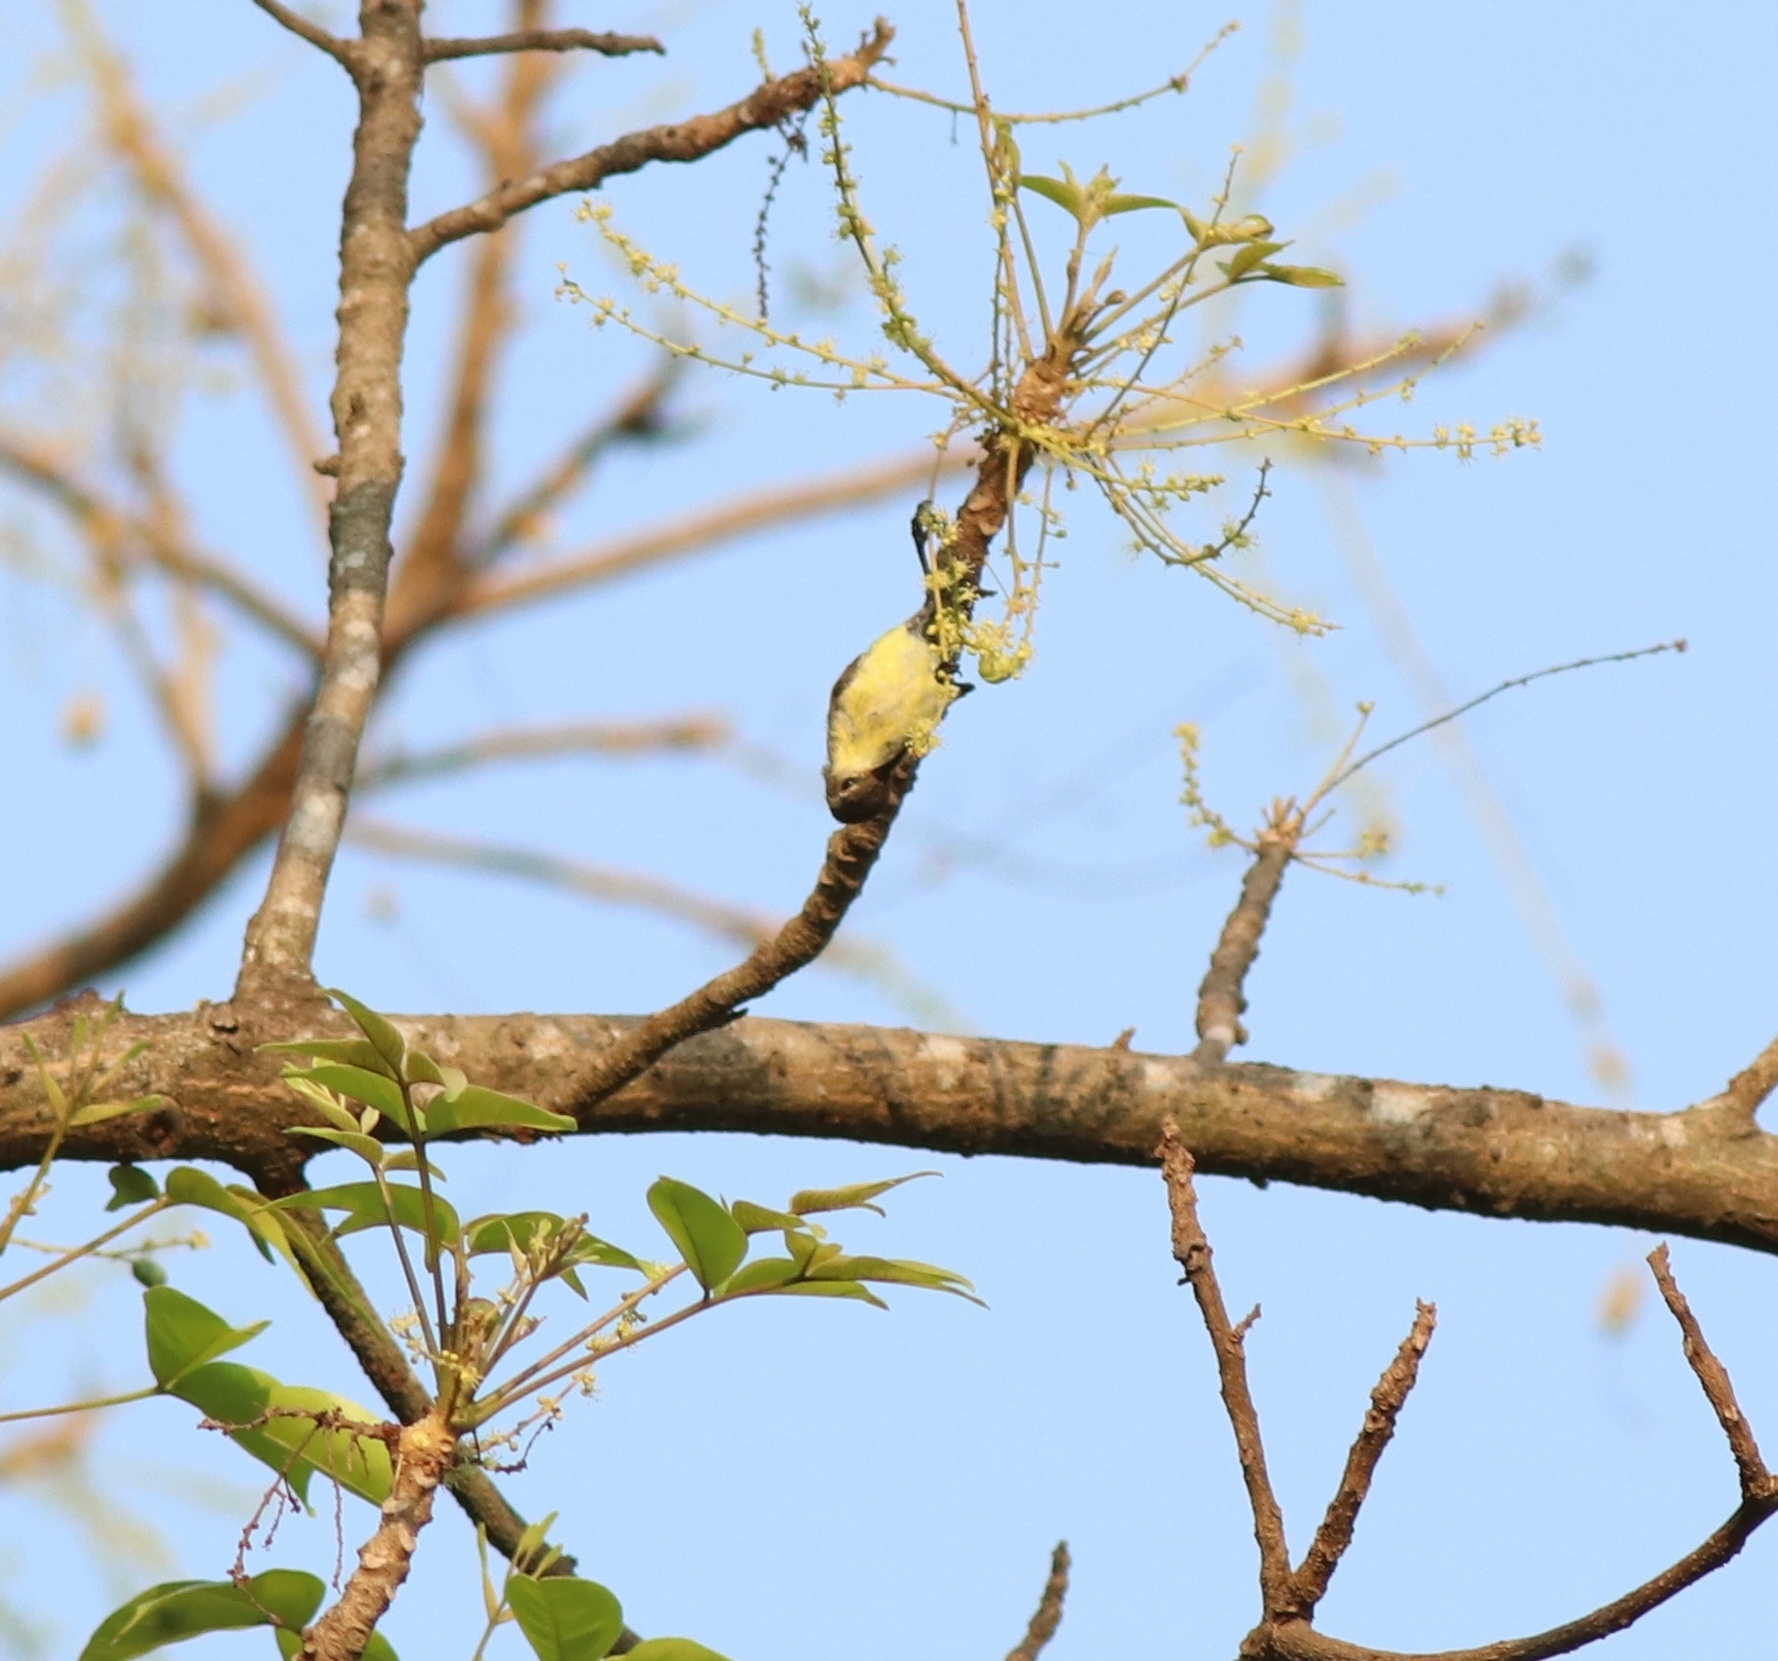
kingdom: Animalia
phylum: Chordata
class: Aves
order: Passeriformes
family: Nectariniidae
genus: Leptocoma
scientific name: Leptocoma zeylonica
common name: Purple-rumped sunbird
